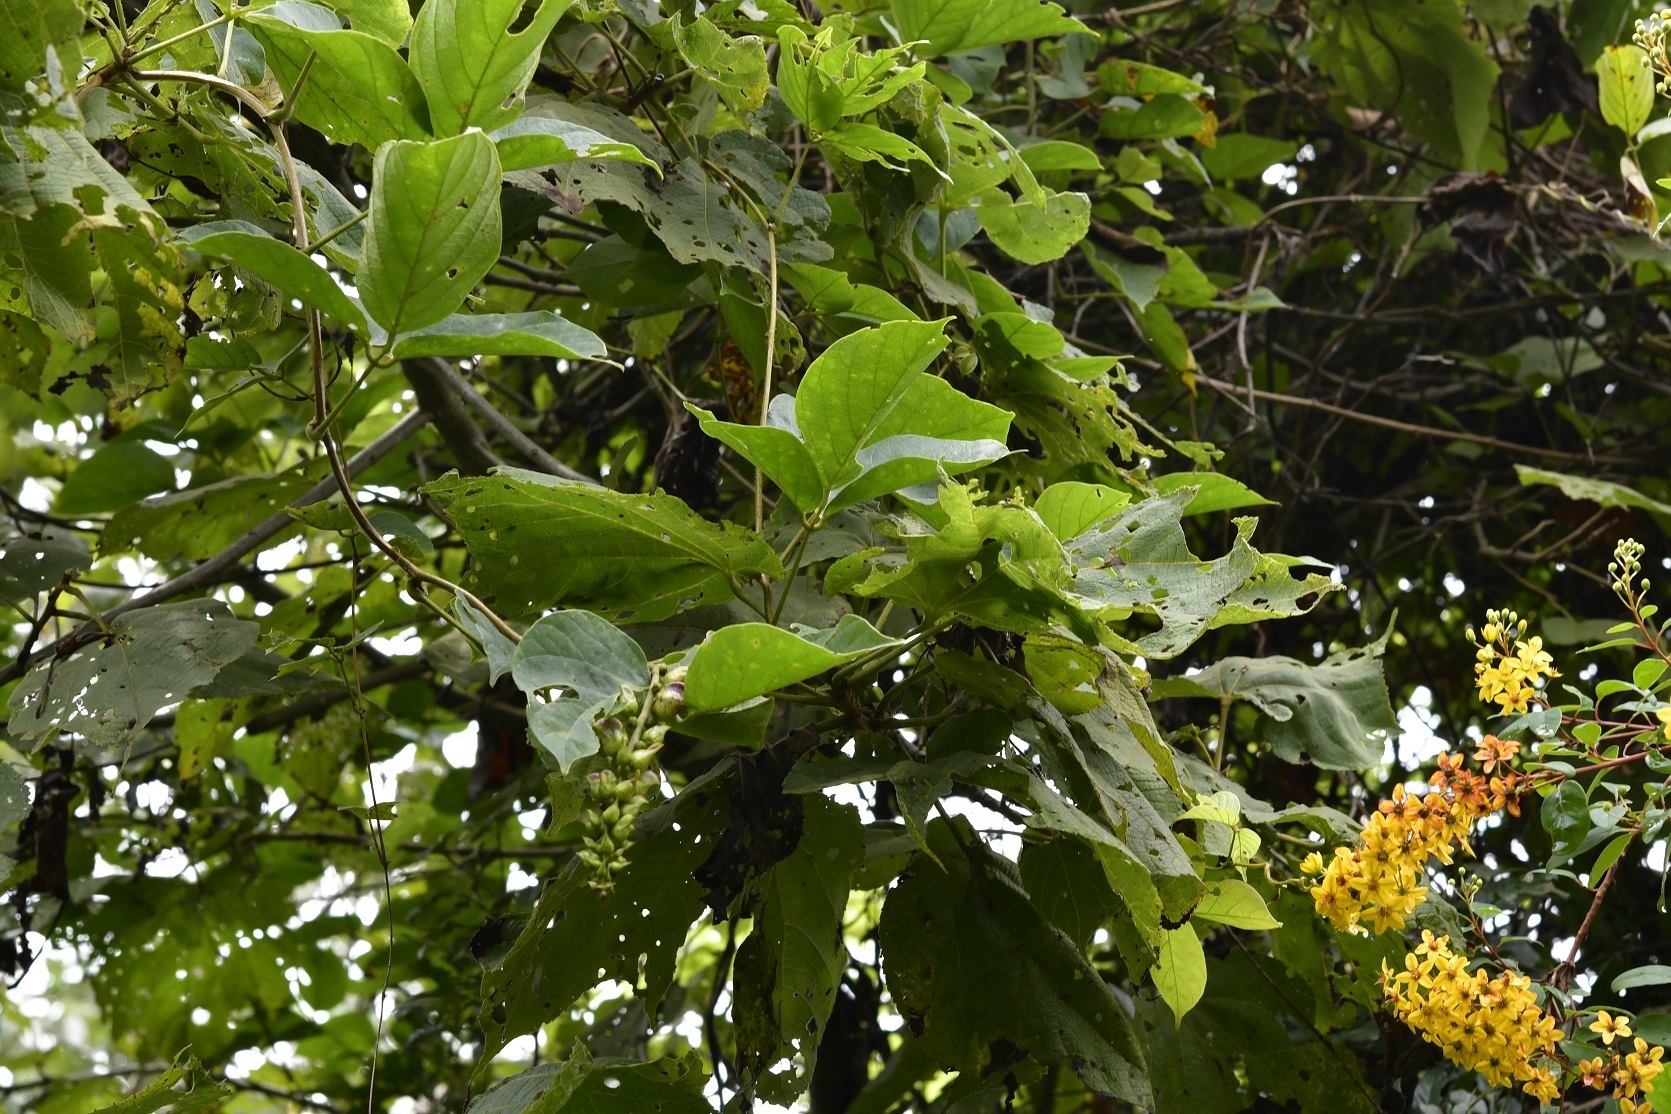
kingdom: Plantae
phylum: Tracheophyta
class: Magnoliopsida
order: Fabales
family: Fabaceae
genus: Canavalia
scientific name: Canavalia oxyphylla
